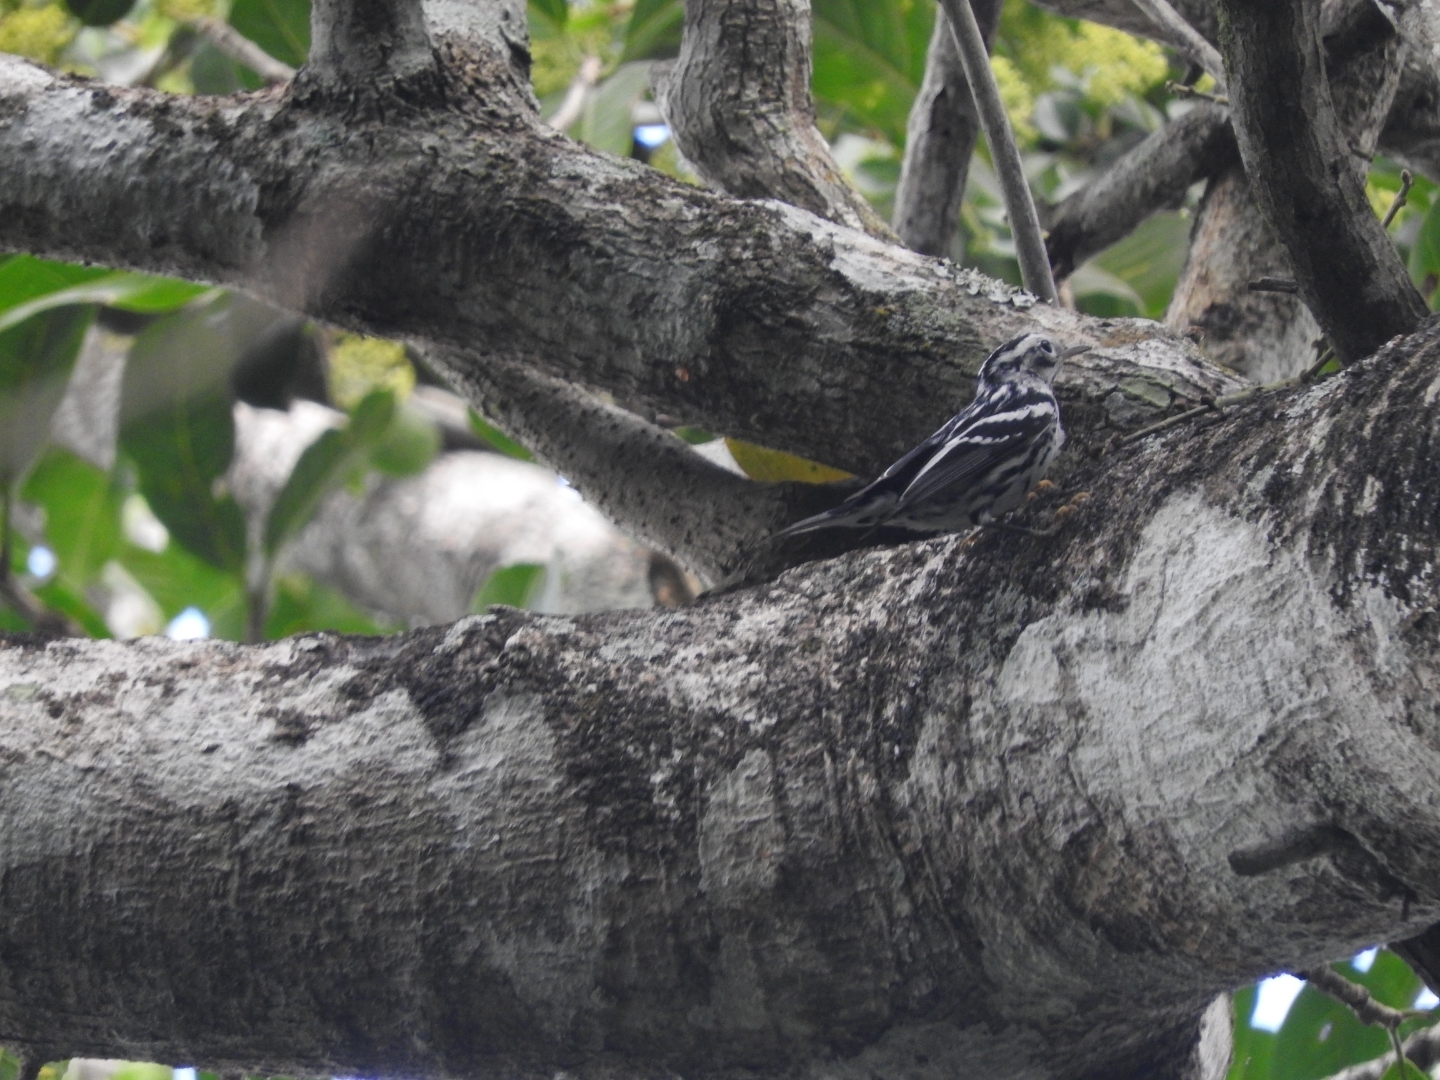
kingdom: Animalia
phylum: Chordata
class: Aves
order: Passeriformes
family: Parulidae
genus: Mniotilta
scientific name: Mniotilta varia
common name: Black-and-white warbler
